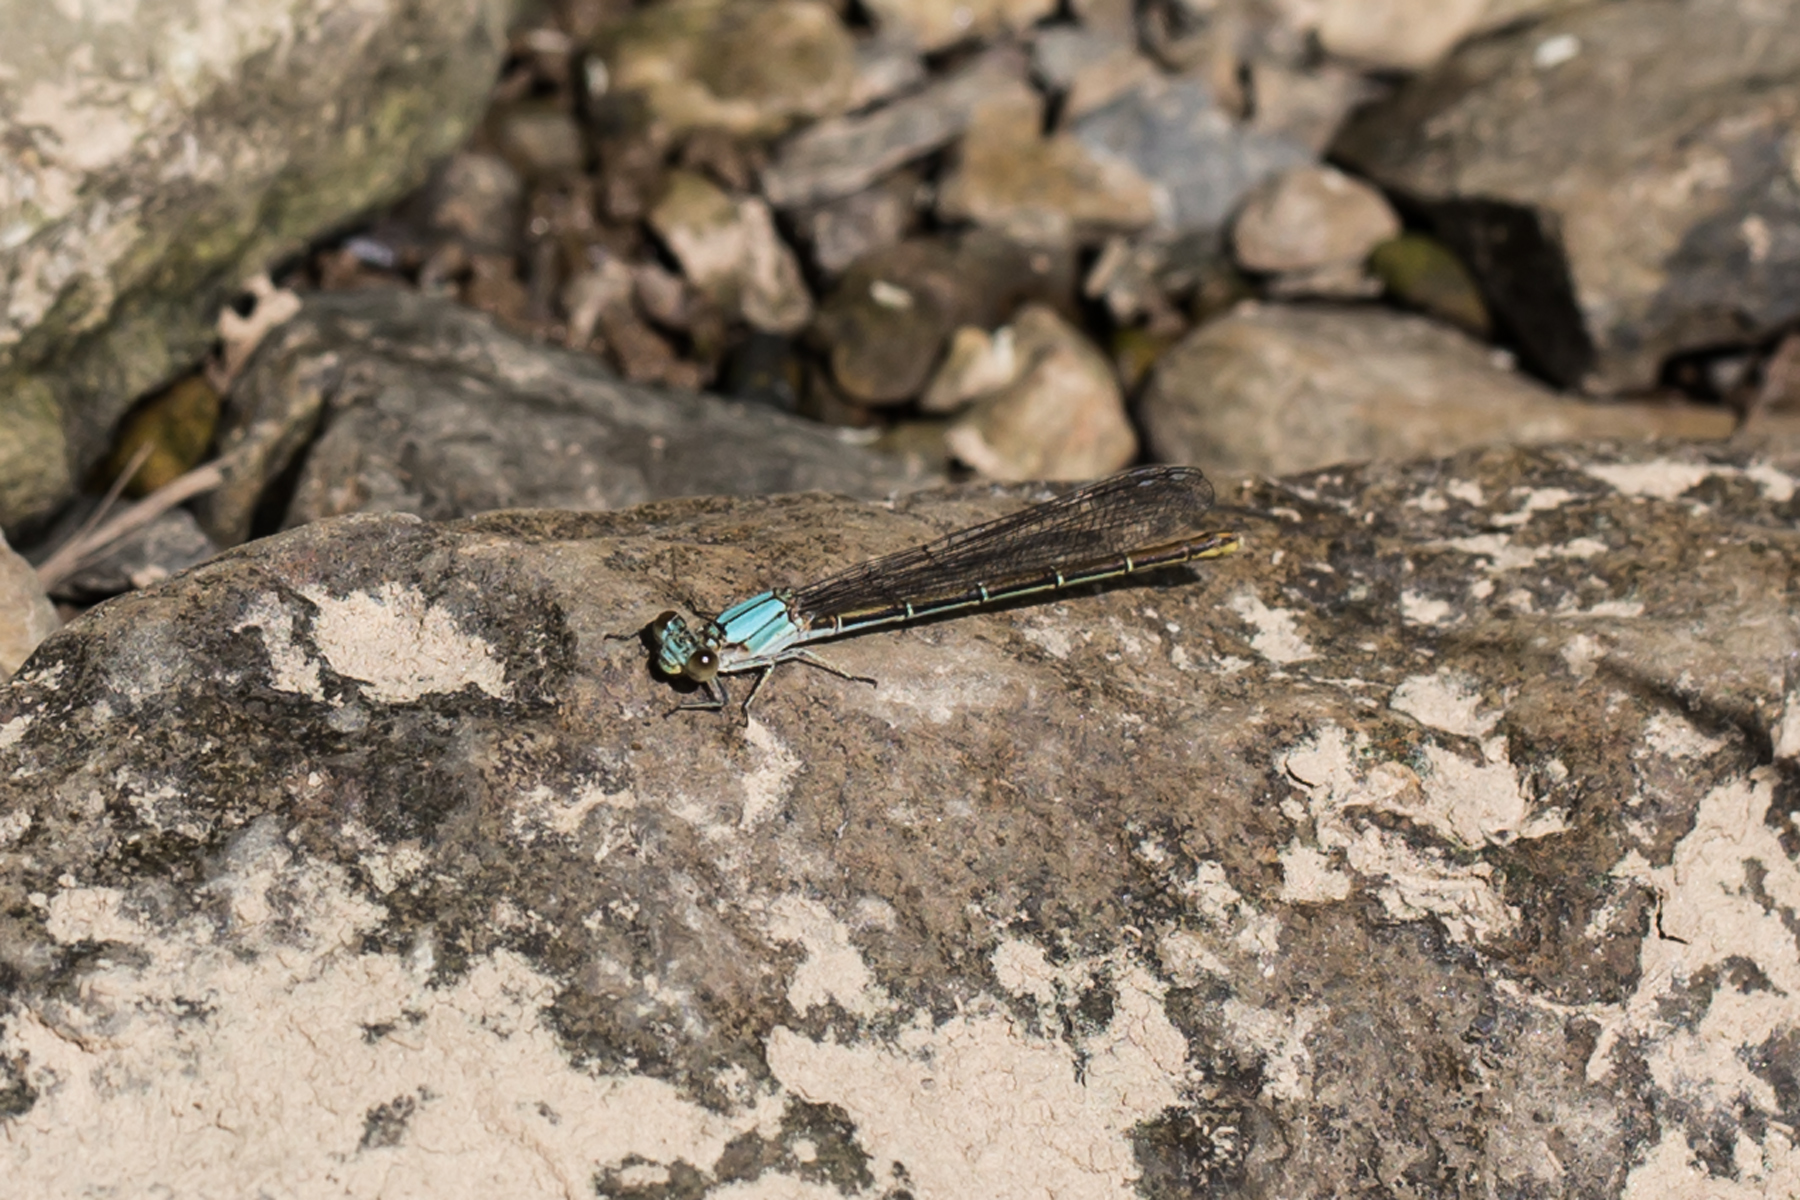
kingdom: Animalia
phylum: Arthropoda
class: Insecta
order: Odonata
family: Coenagrionidae
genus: Argia
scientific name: Argia moesta
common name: Powdered dancer
